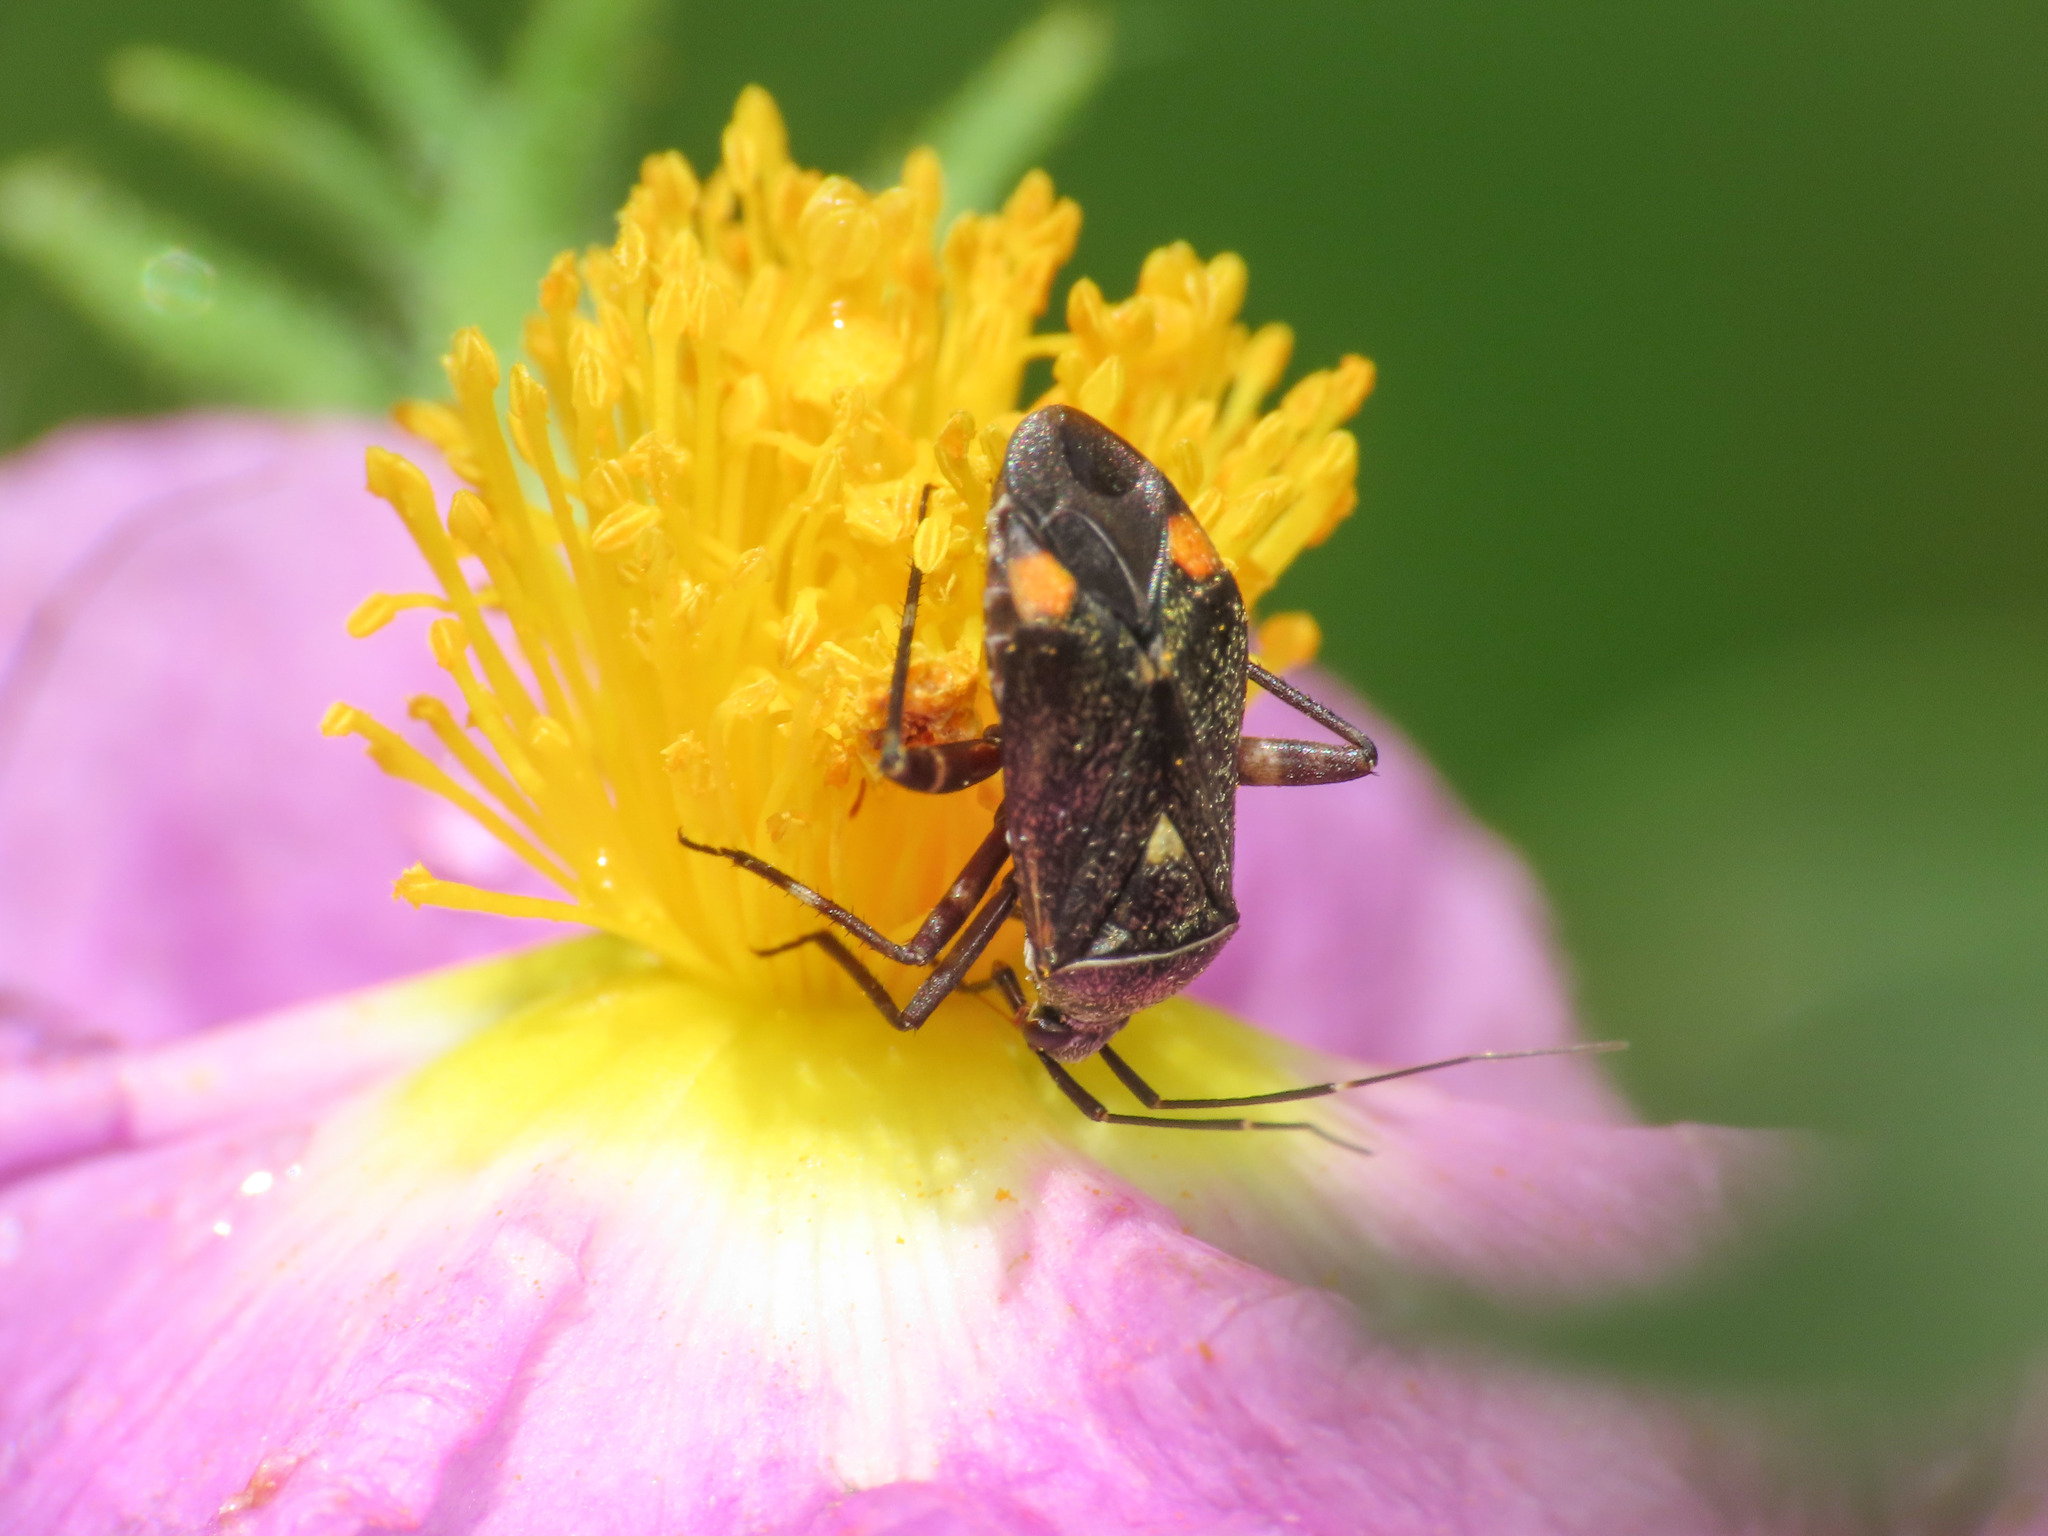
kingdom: Animalia
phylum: Arthropoda
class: Insecta
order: Hemiptera
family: Miridae
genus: Closterotomus
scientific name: Closterotomus cinctipes
